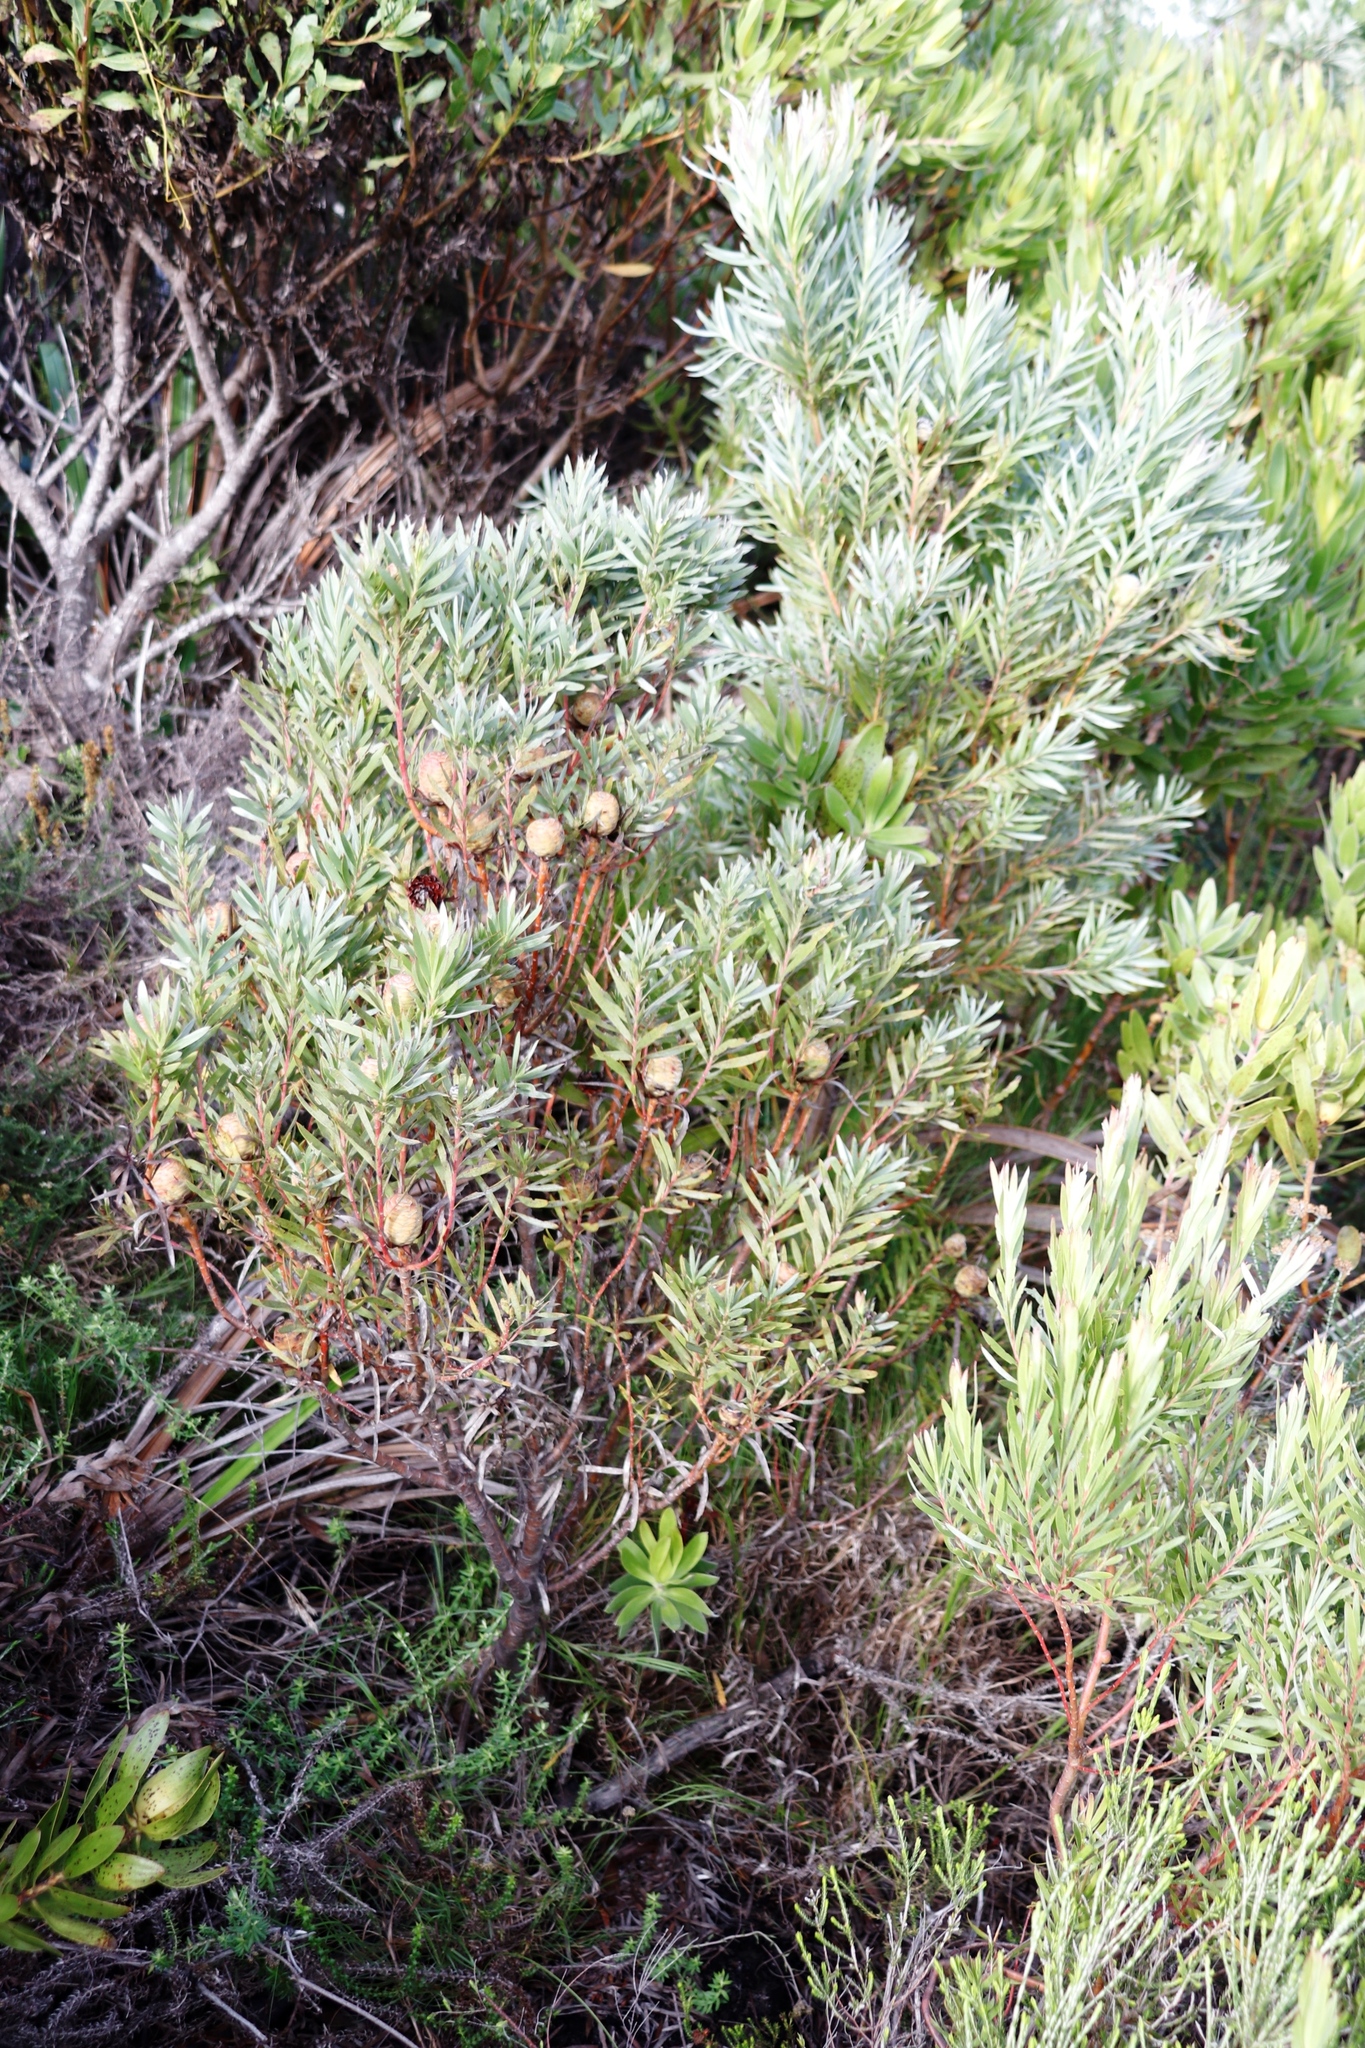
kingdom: Plantae
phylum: Tracheophyta
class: Magnoliopsida
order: Proteales
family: Proteaceae
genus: Leucadendron
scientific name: Leucadendron xanthoconus
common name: Sickle-leaf conebush
